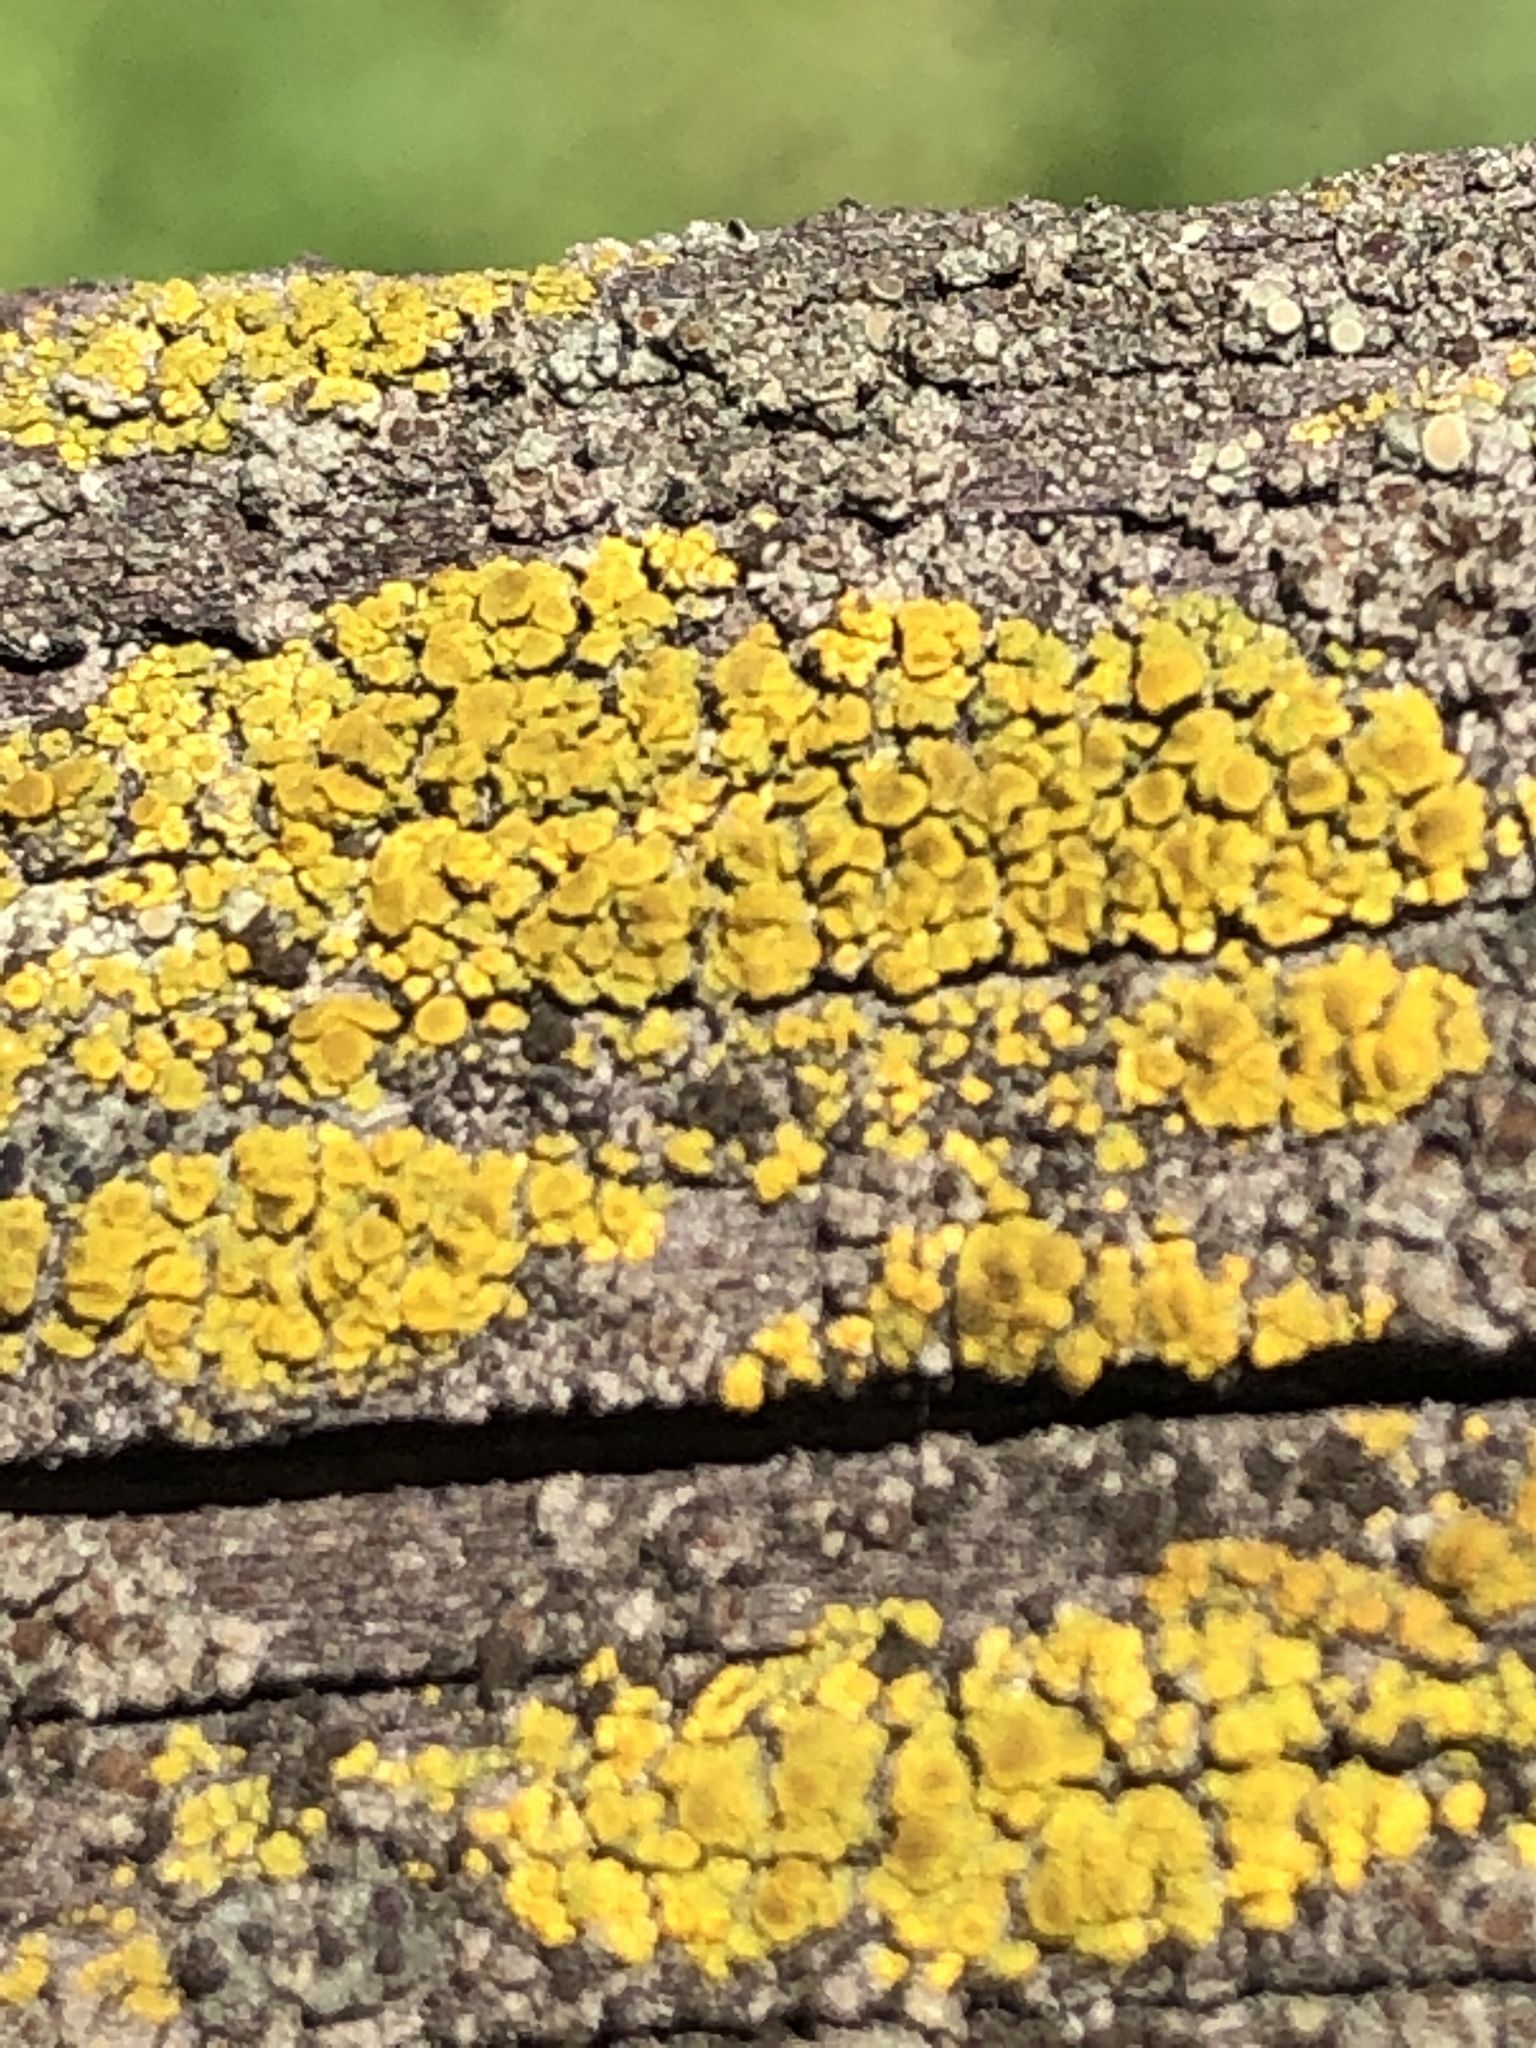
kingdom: Fungi
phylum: Ascomycota
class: Candelariomycetes
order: Candelariales
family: Candelariaceae
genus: Candelariella
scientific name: Candelariella vitellina
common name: Common goldspeck
